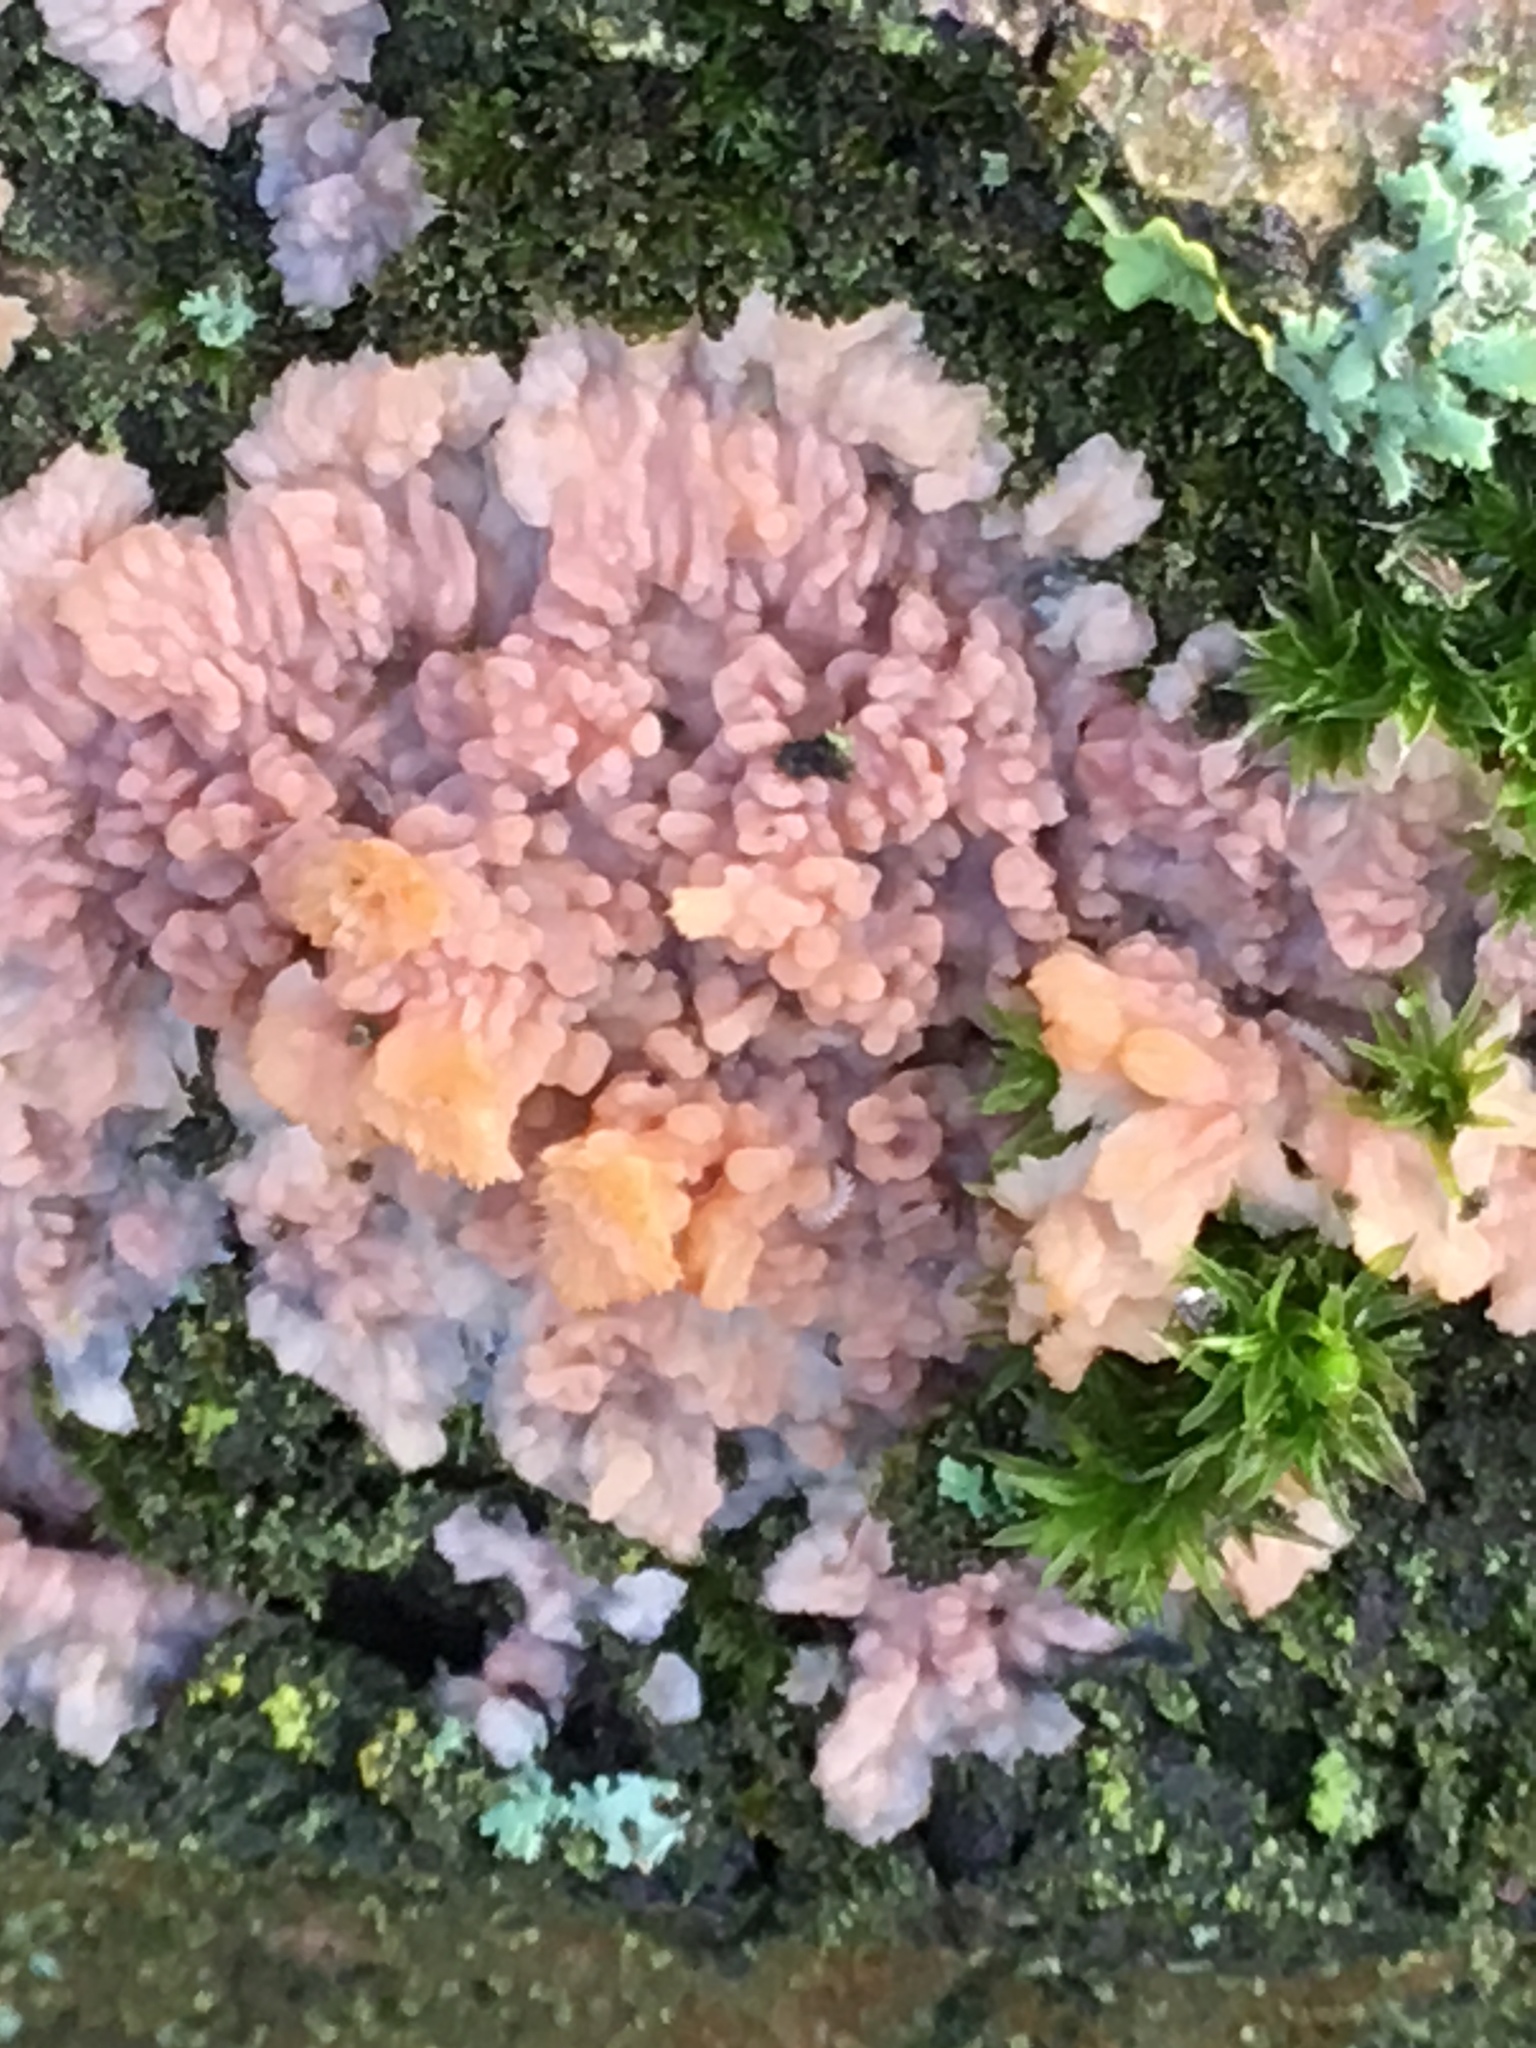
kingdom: Fungi
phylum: Basidiomycota
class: Agaricomycetes
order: Polyporales
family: Meruliaceae
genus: Phlebia
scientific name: Phlebia radiata
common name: Wrinkled crust
